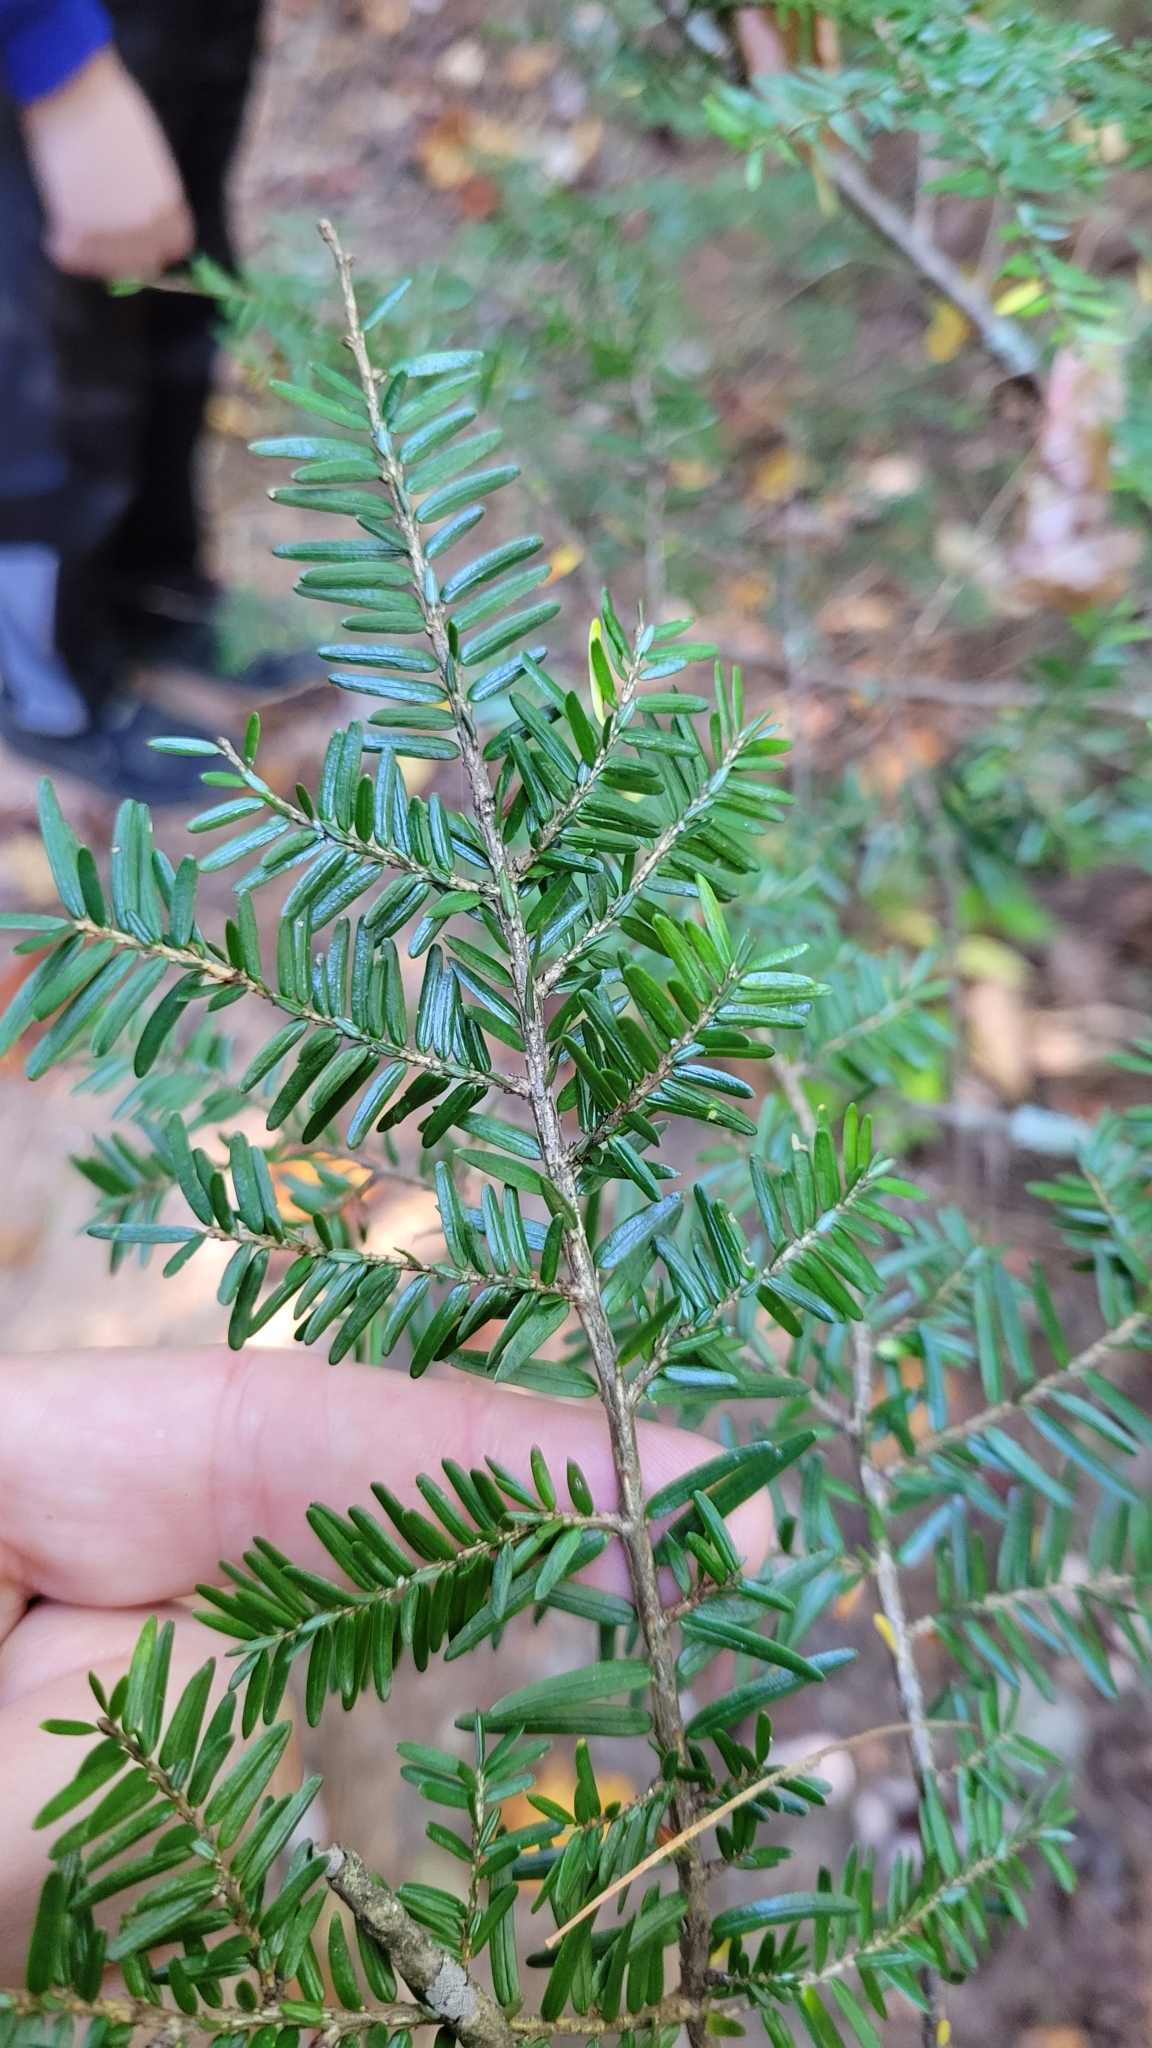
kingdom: Plantae
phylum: Tracheophyta
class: Pinopsida
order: Pinales
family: Pinaceae
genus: Tsuga
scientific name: Tsuga canadensis
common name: Eastern hemlock
